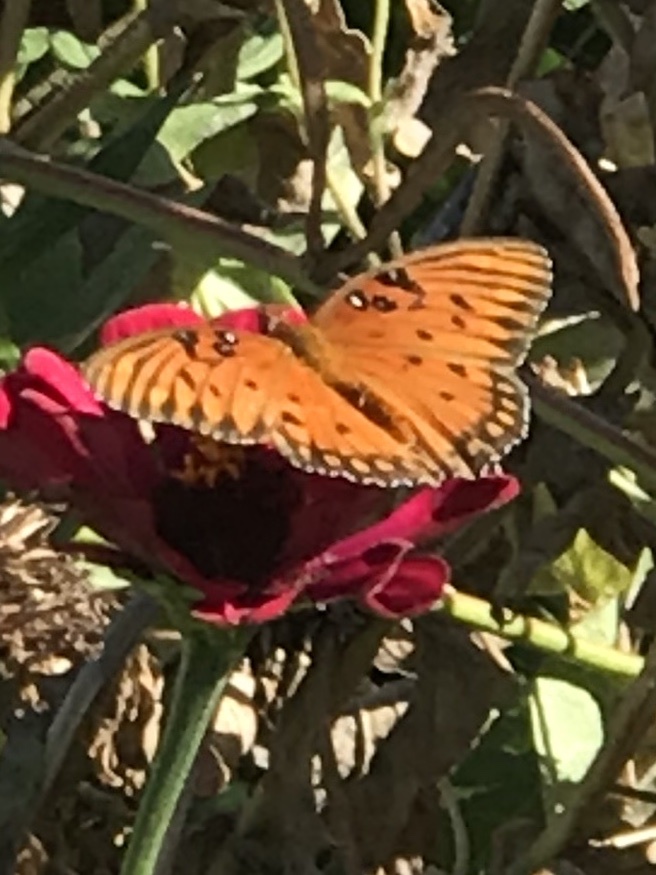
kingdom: Animalia
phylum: Arthropoda
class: Insecta
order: Lepidoptera
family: Nymphalidae
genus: Dione
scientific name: Dione vanillae
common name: Gulf fritillary
